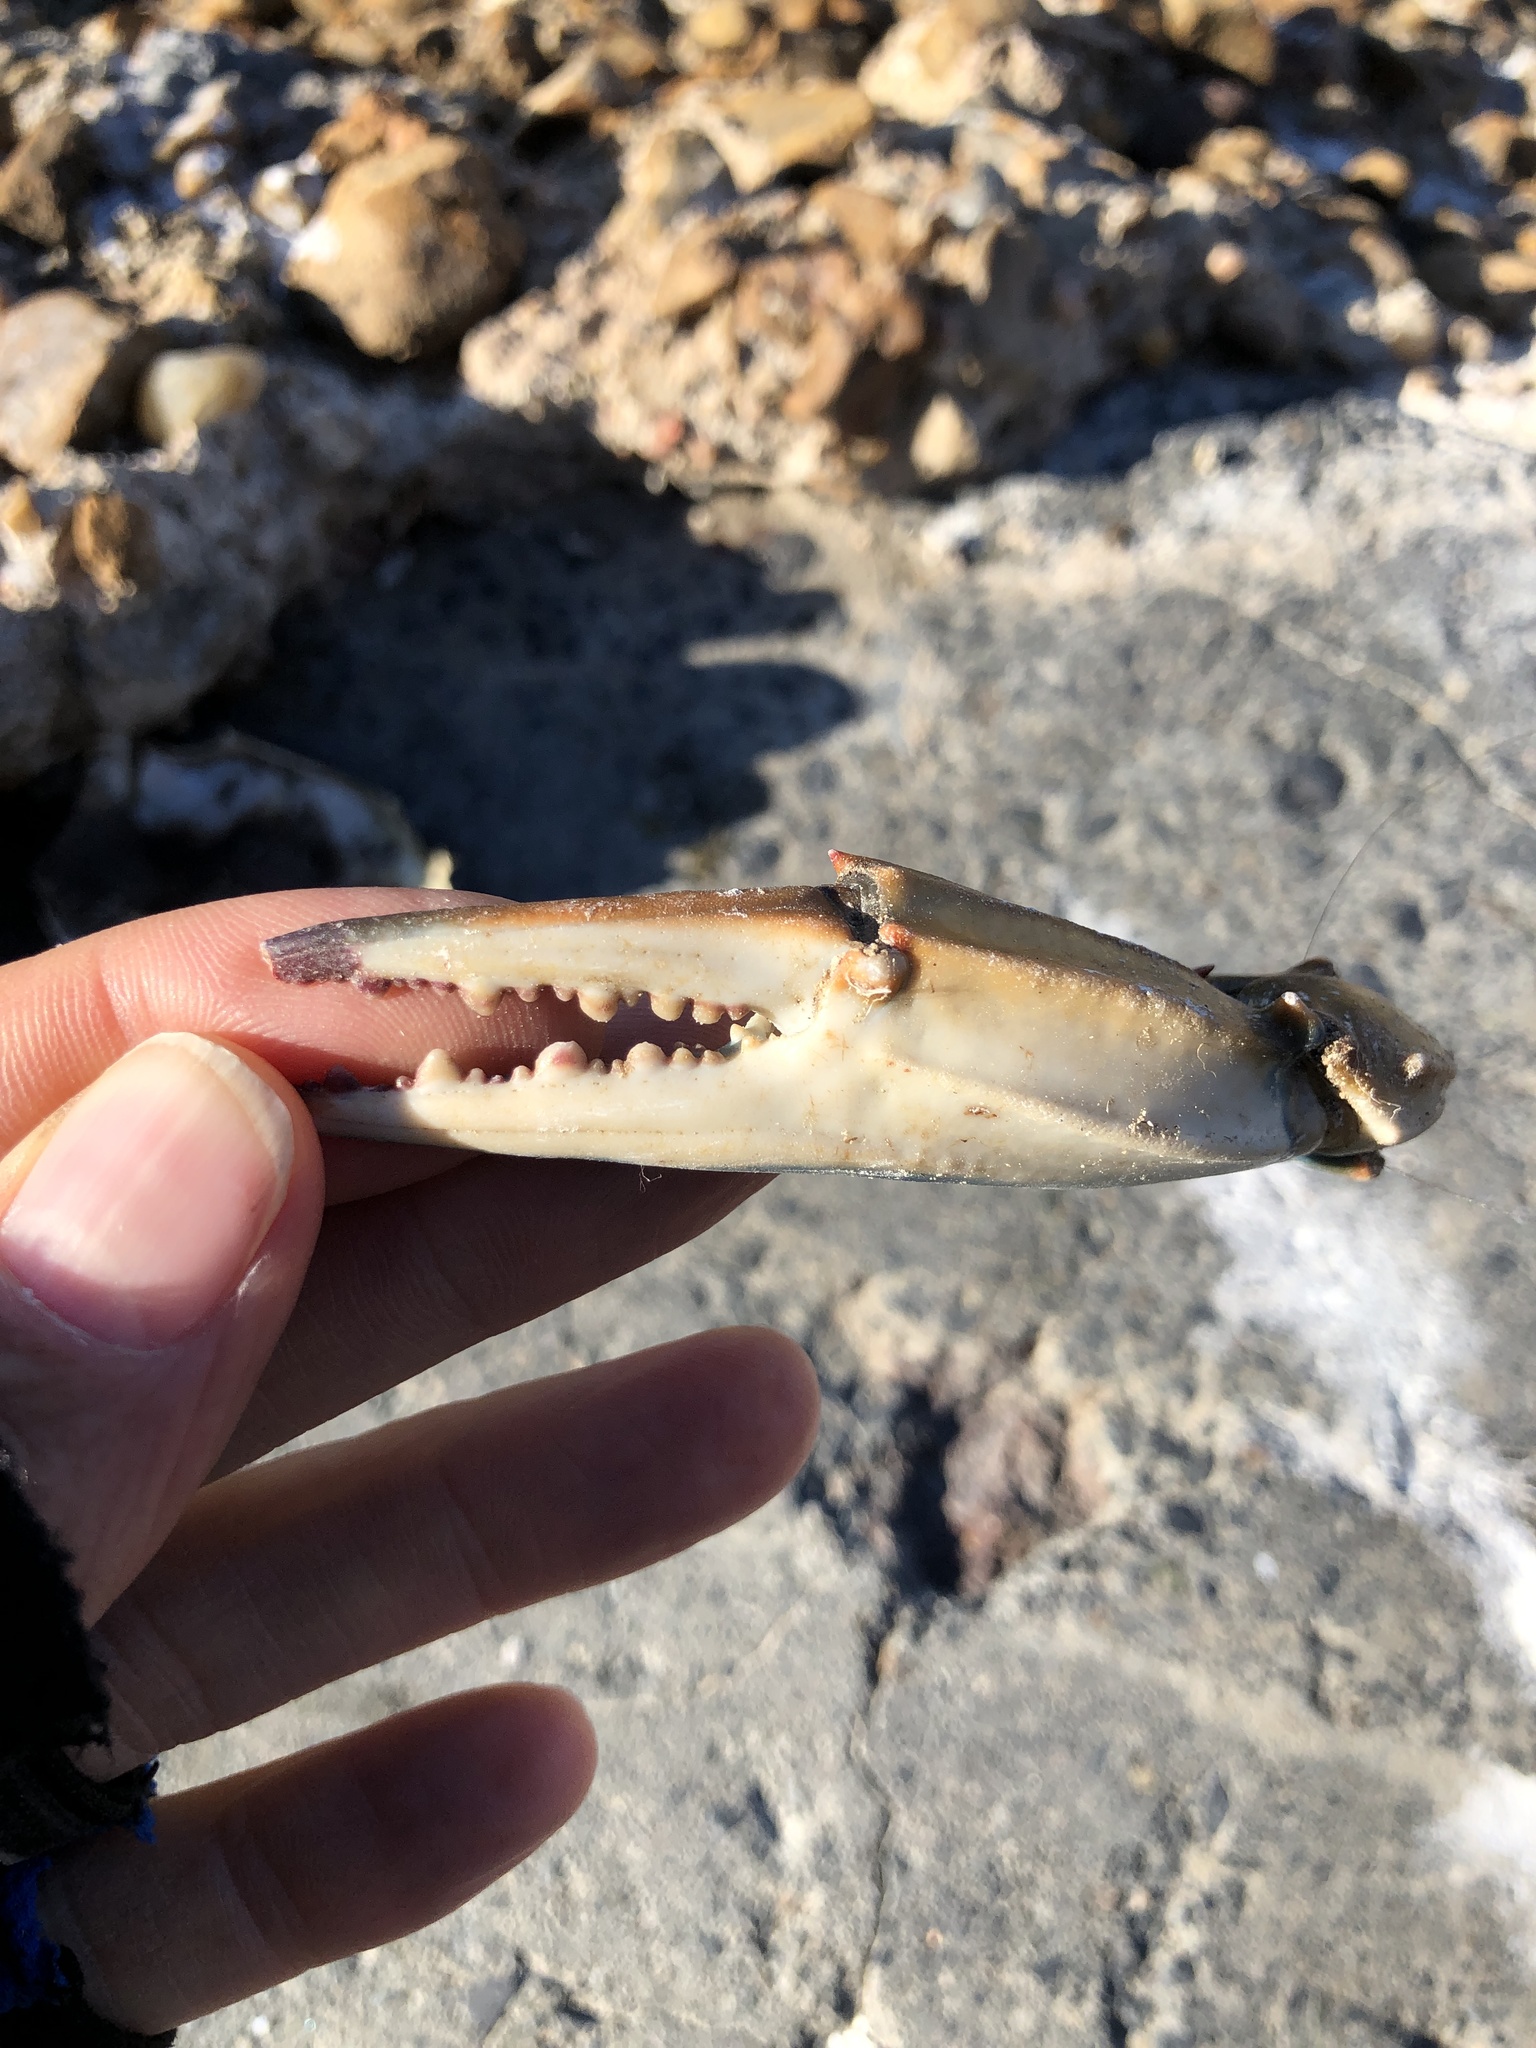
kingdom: Animalia
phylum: Arthropoda
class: Malacostraca
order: Decapoda
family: Portunidae
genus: Callinectes
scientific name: Callinectes sapidus
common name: Blue crab
